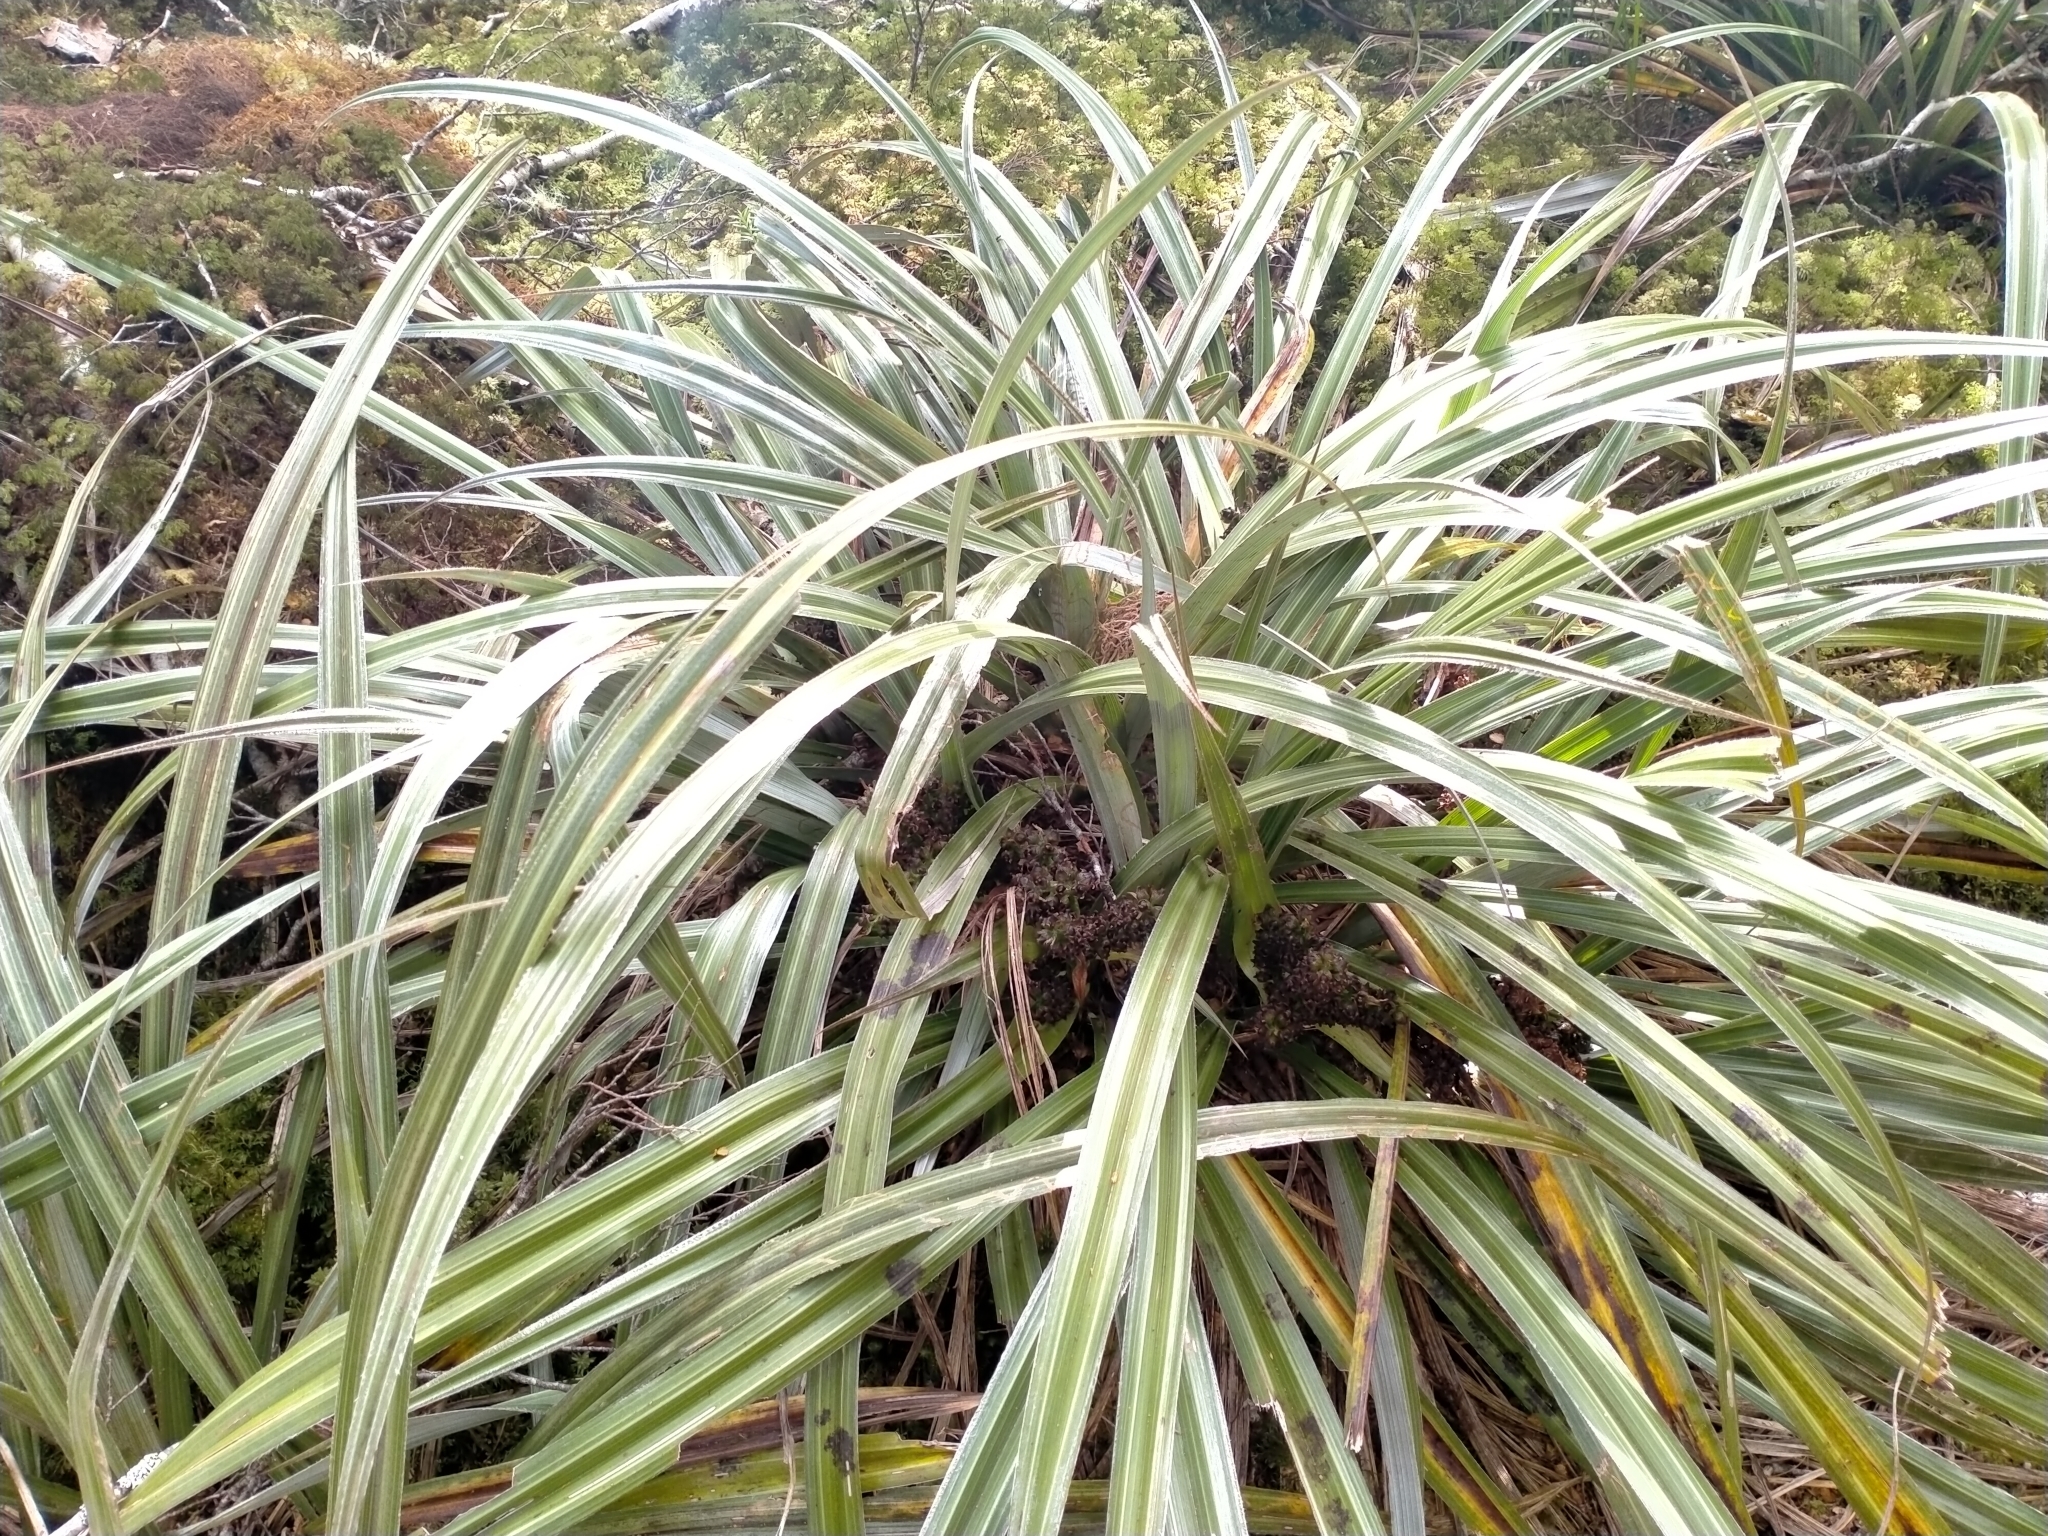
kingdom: Plantae
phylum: Tracheophyta
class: Liliopsida
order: Asparagales
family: Asteliaceae
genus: Astelia
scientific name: Astelia nervosa
